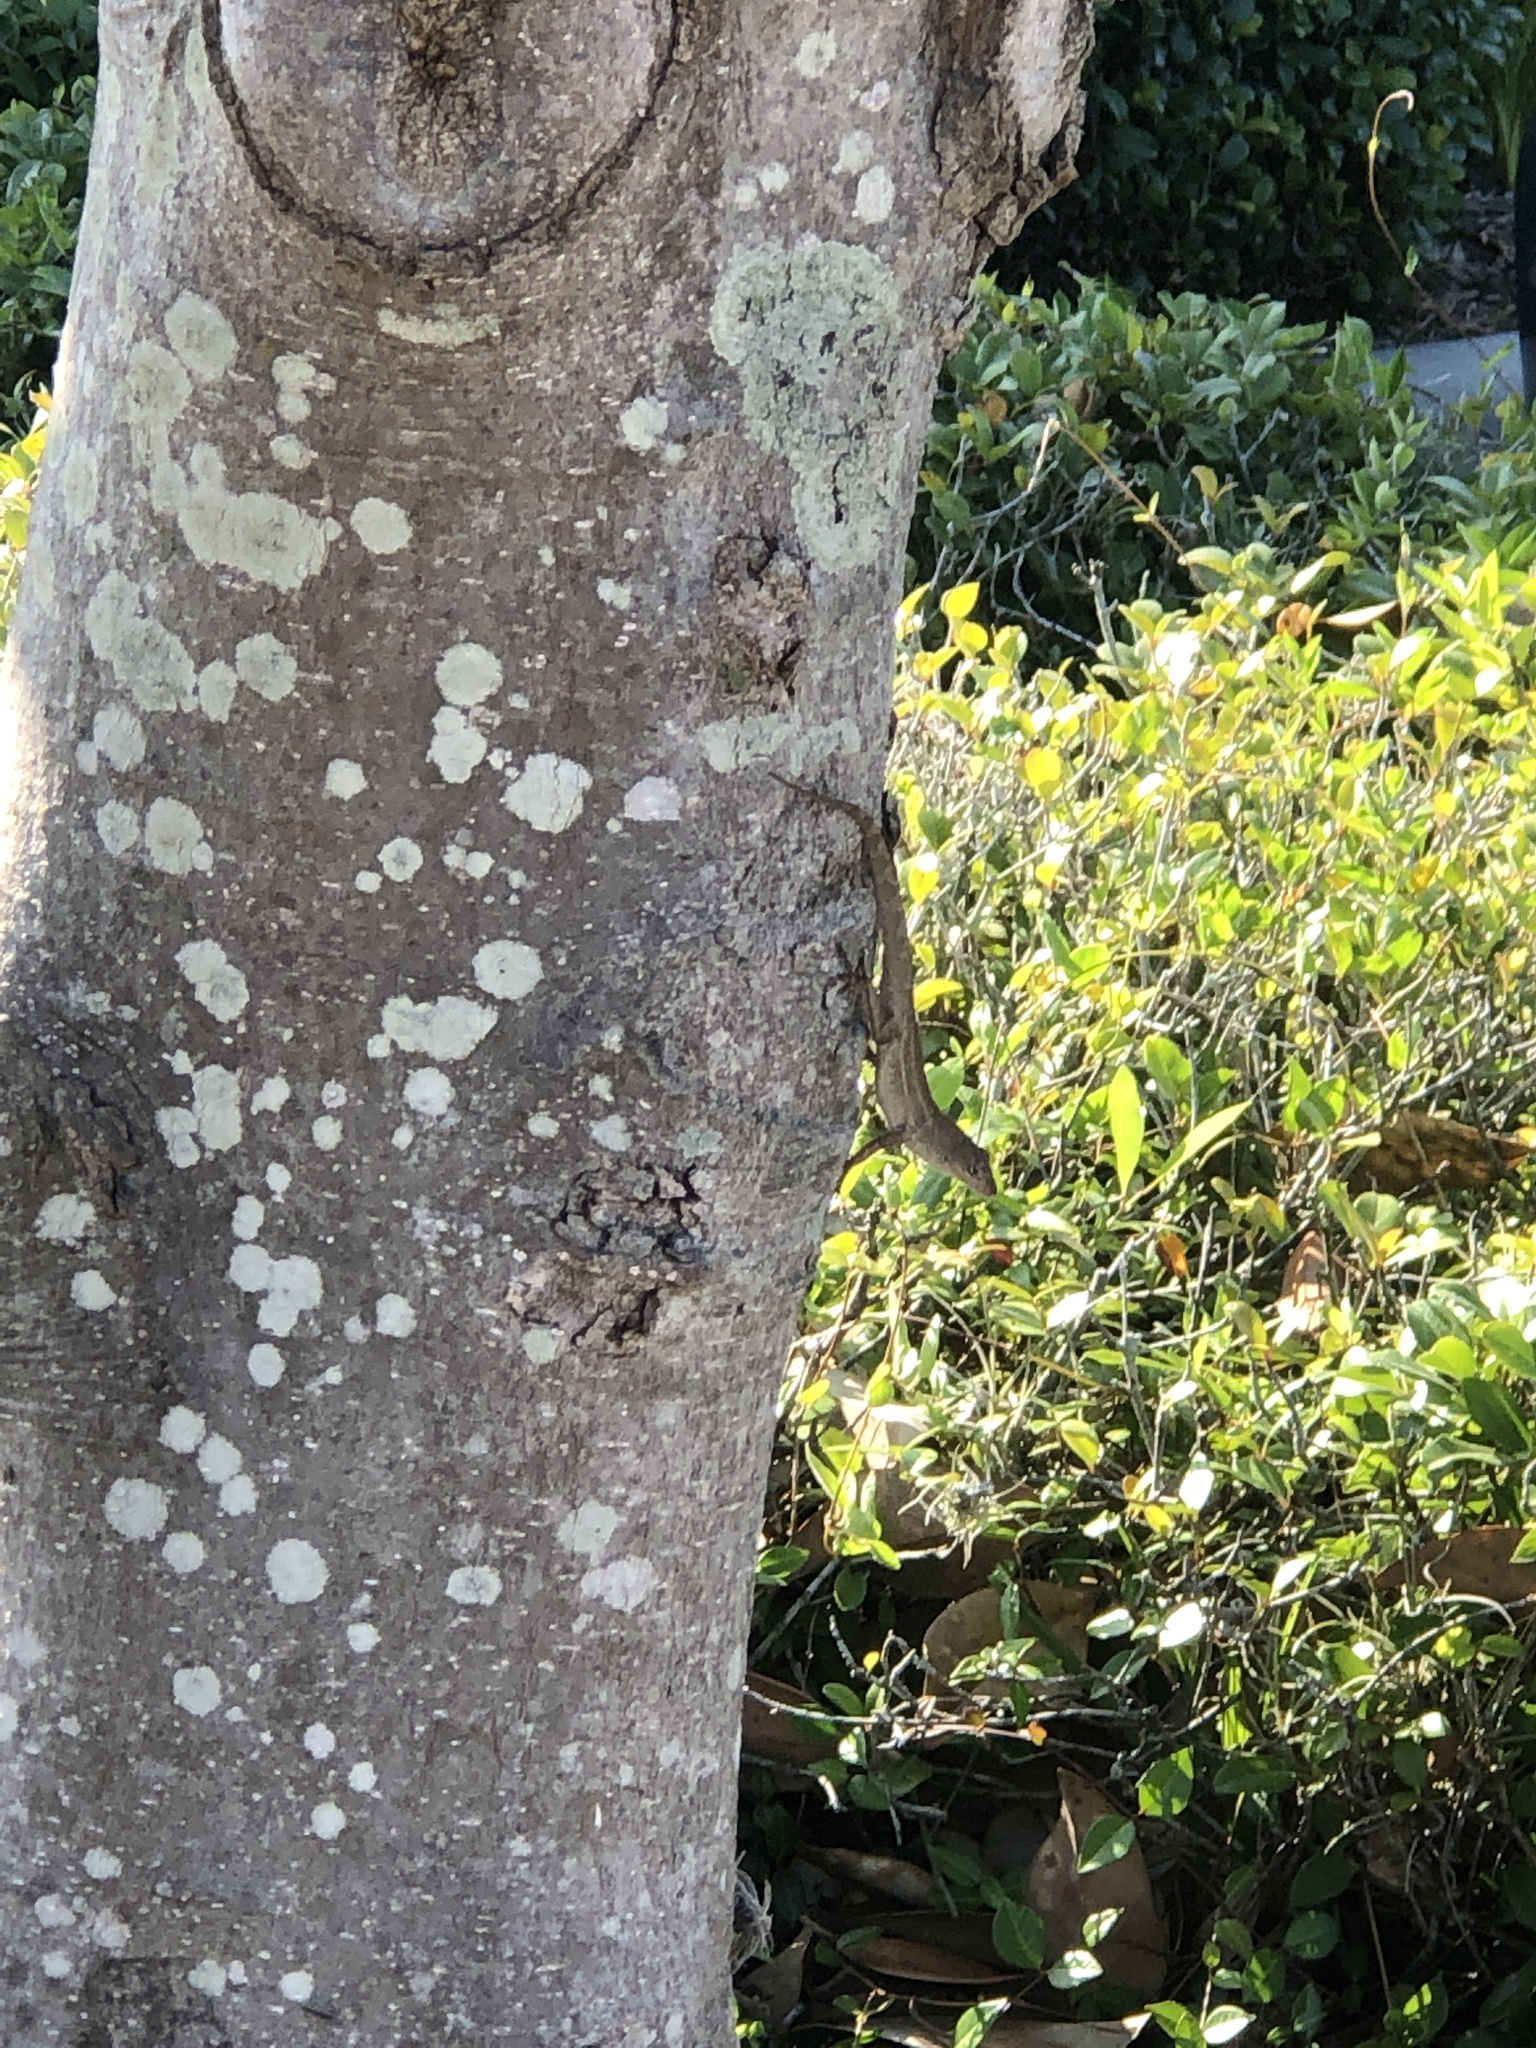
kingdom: Animalia
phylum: Chordata
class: Squamata
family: Dactyloidae
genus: Anolis
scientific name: Anolis sagrei
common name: Brown anole
